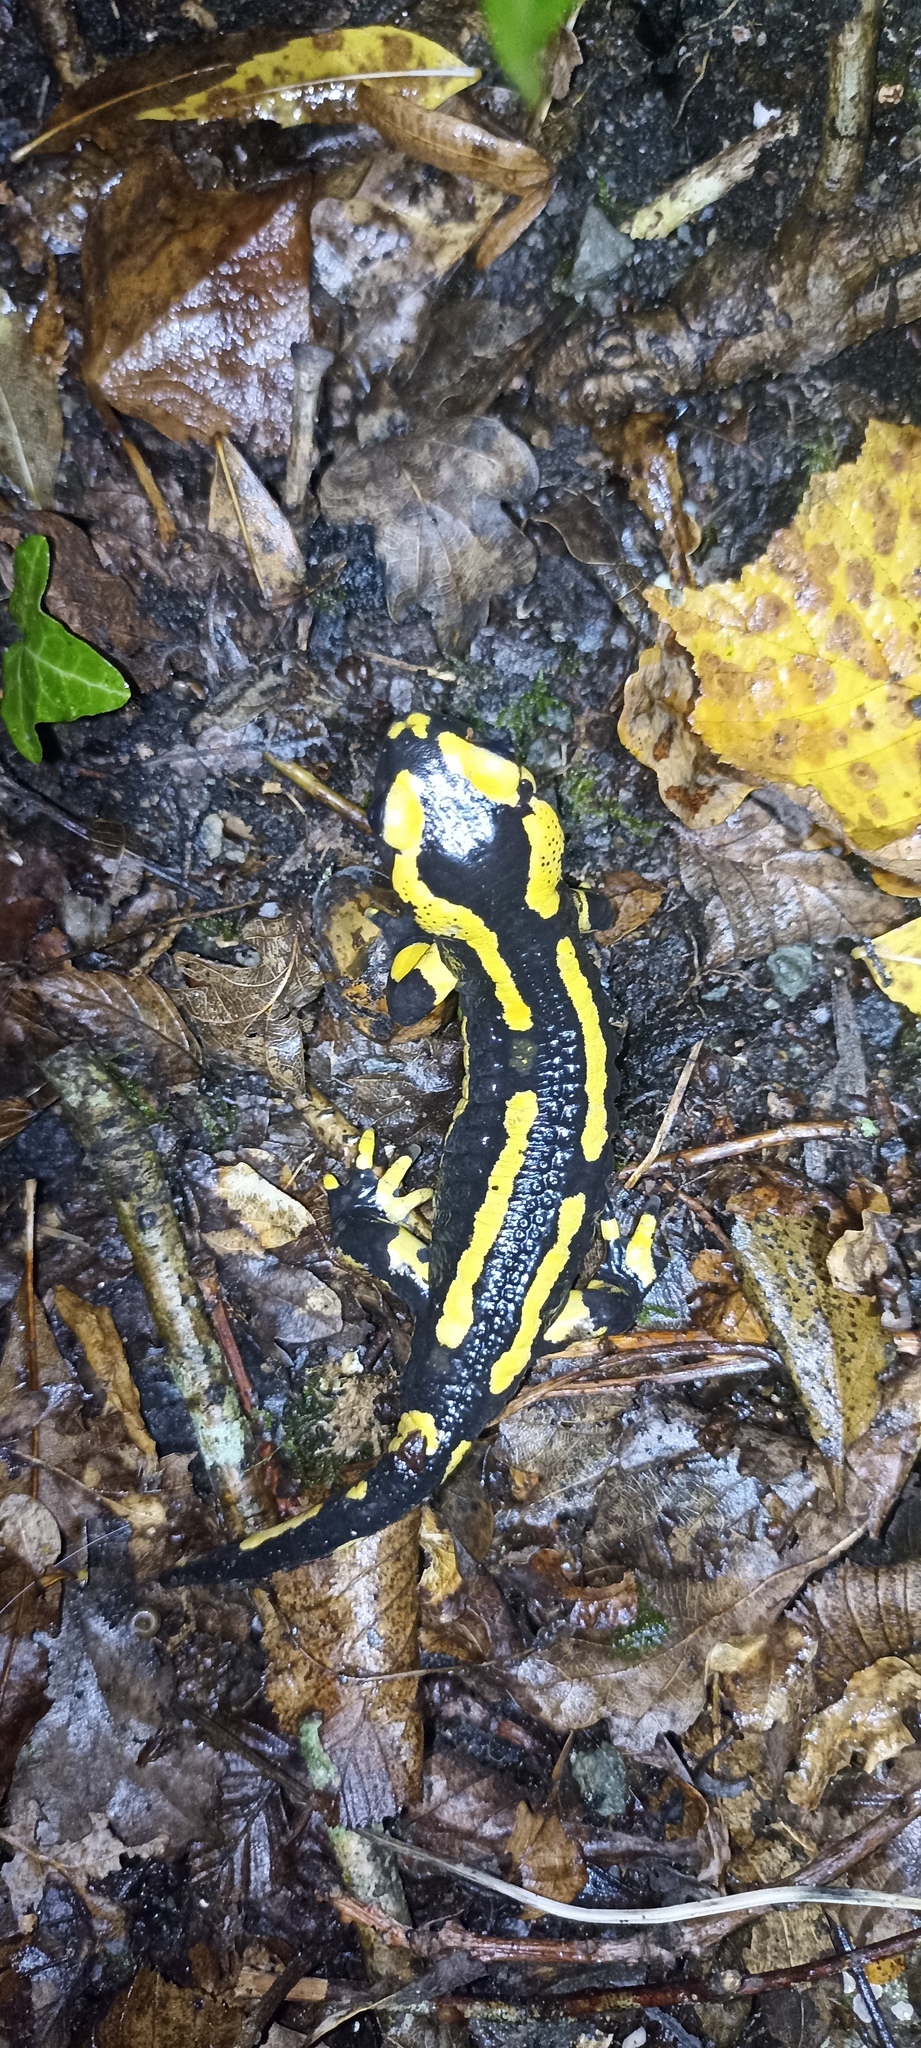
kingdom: Animalia
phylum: Chordata
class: Amphibia
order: Caudata
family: Salamandridae
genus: Salamandra
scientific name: Salamandra salamandra
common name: Fire salamander
